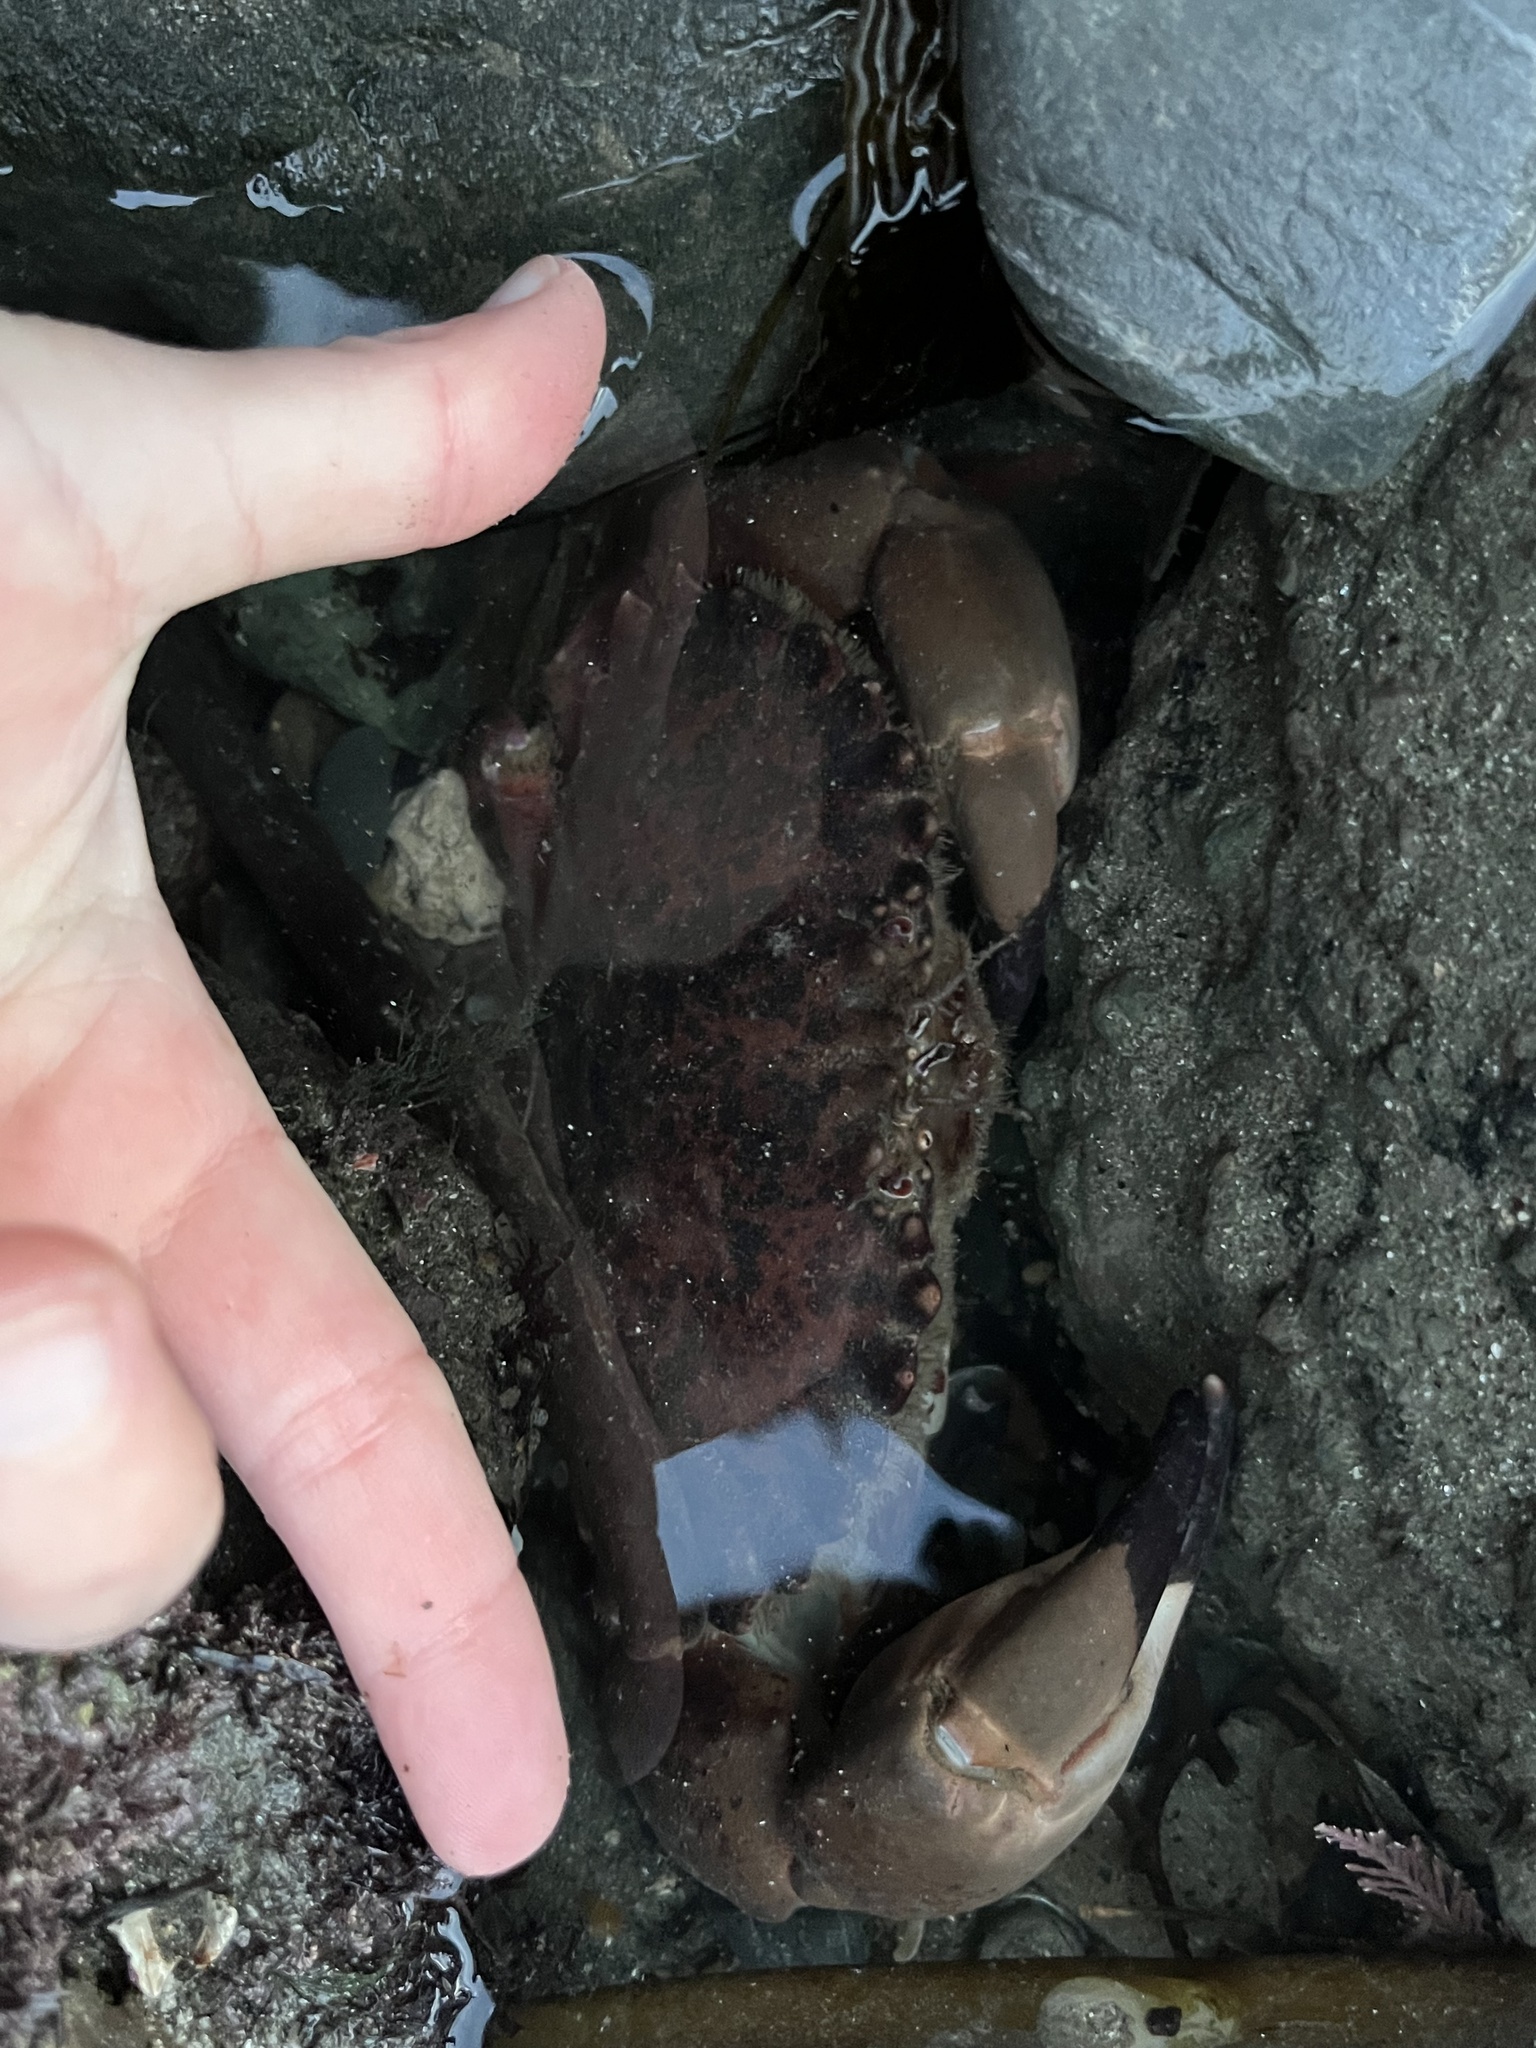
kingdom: Animalia
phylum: Arthropoda
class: Malacostraca
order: Decapoda
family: Cancridae
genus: Romaleon
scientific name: Romaleon antennarium
